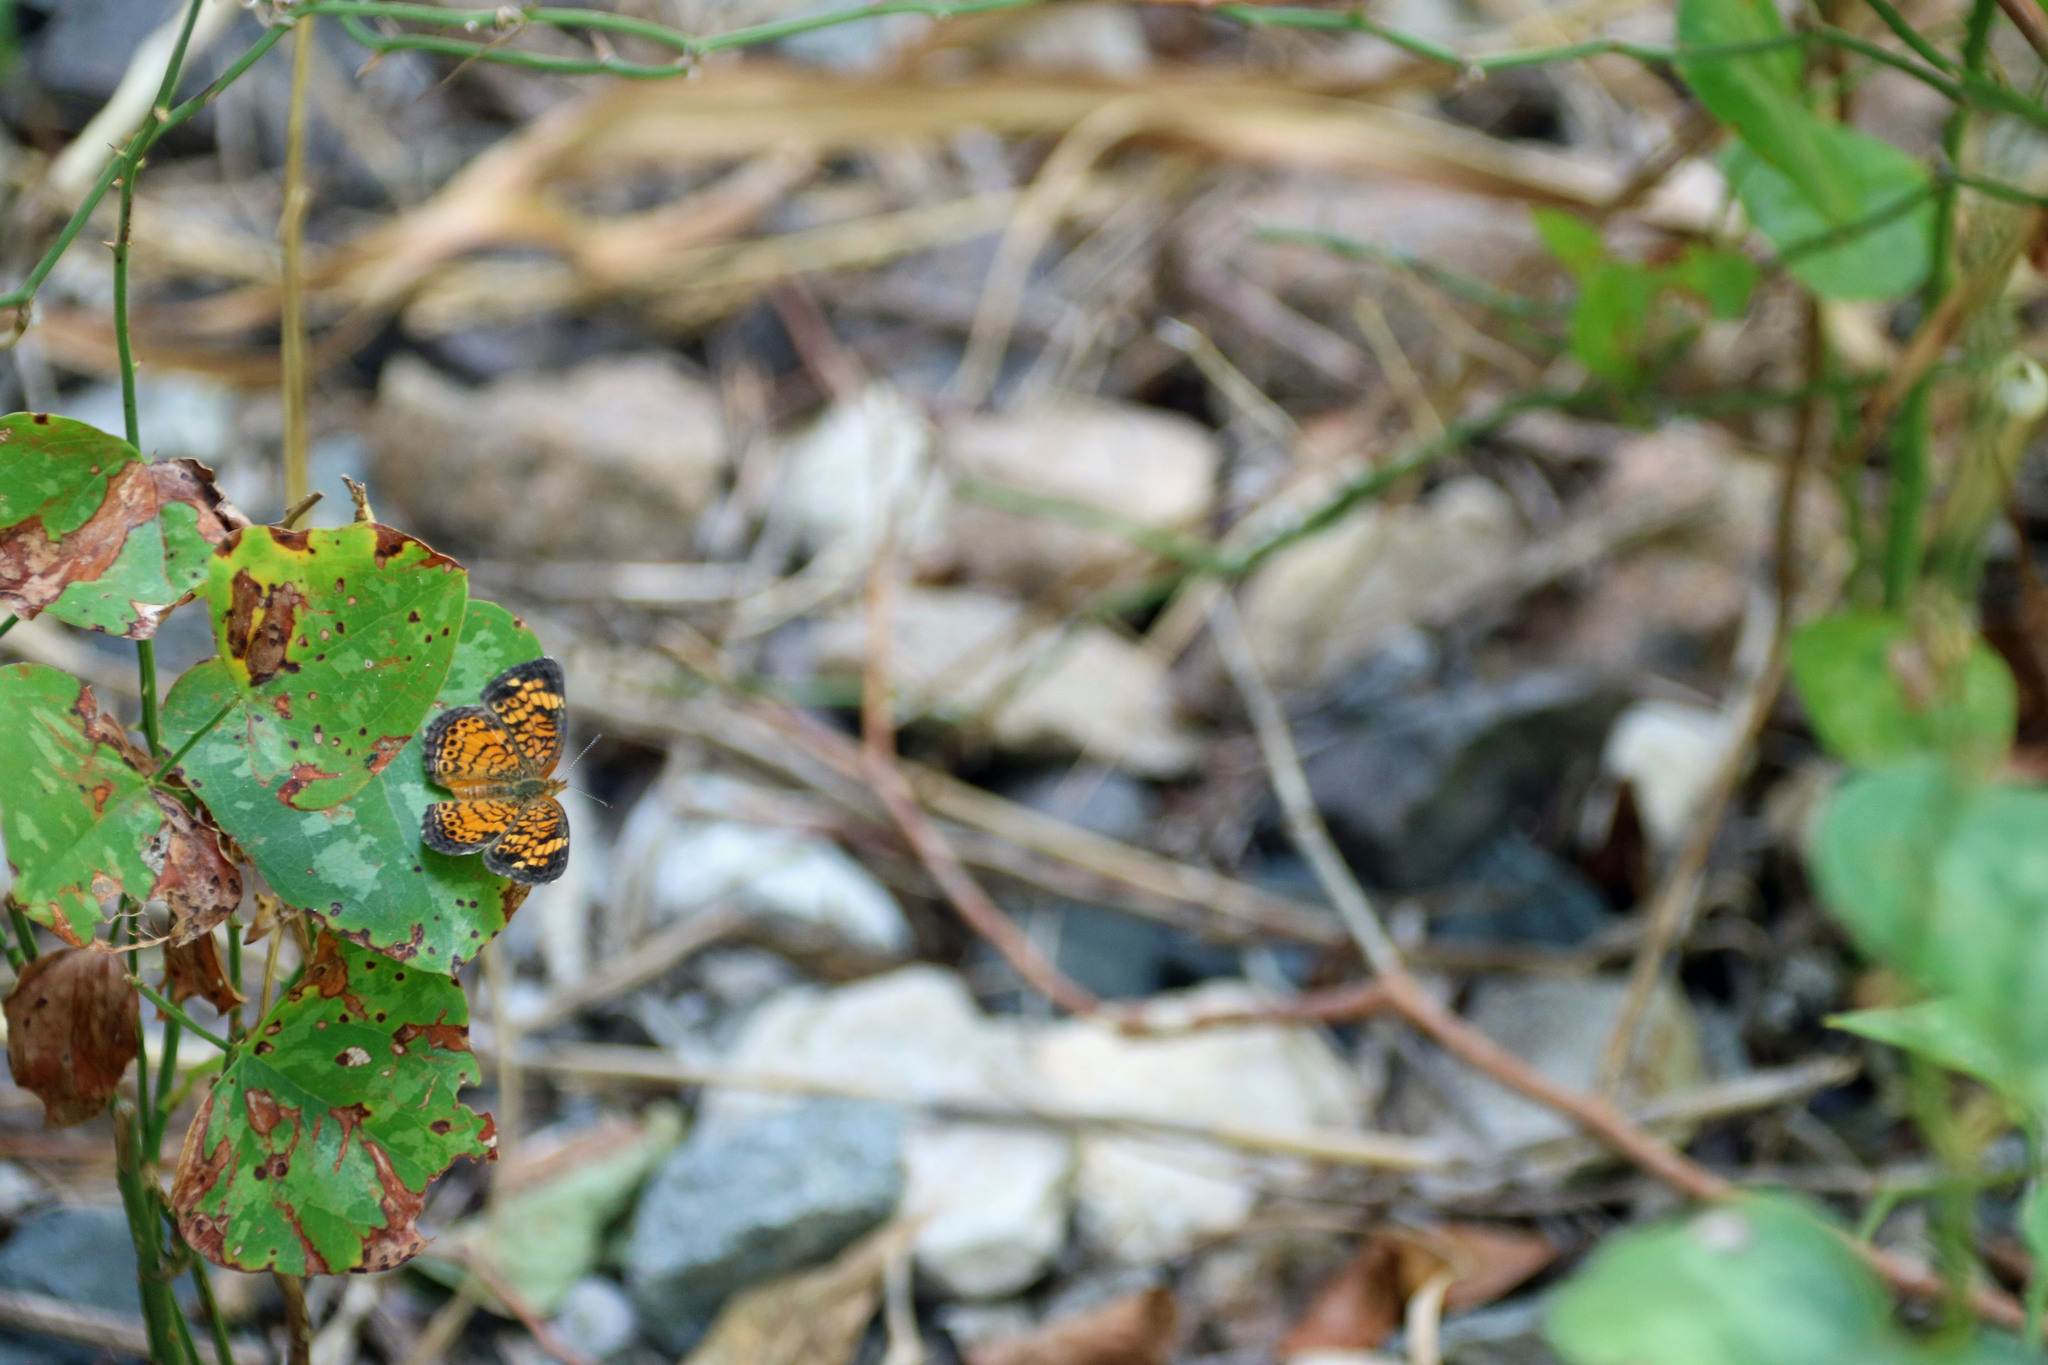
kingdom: Animalia
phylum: Arthropoda
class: Insecta
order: Lepidoptera
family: Nymphalidae
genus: Phyciodes
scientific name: Phyciodes tharos
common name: Pearl crescent
